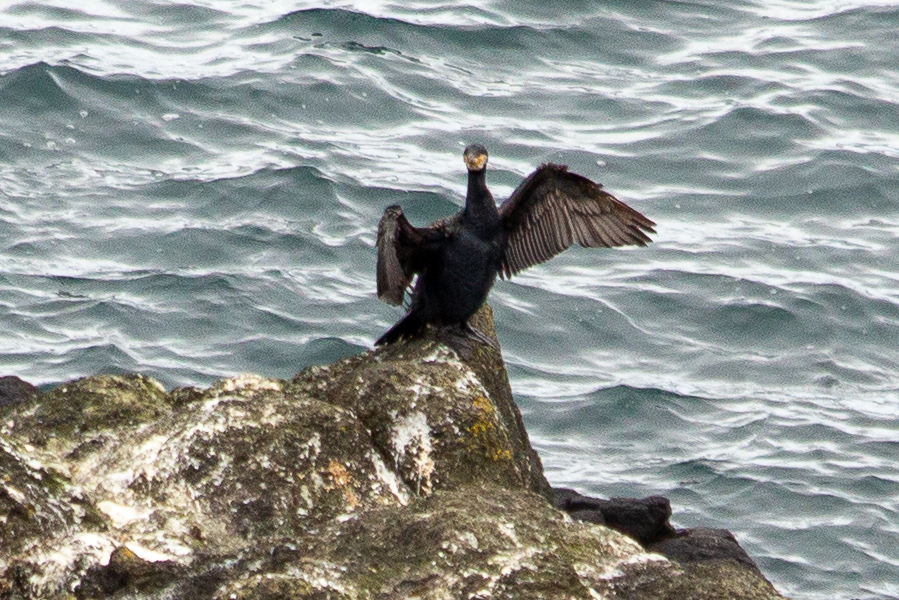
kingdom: Animalia
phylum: Chordata
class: Aves
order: Suliformes
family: Phalacrocoracidae
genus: Phalacrocorax
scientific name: Phalacrocorax carbo
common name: Great cormorant
